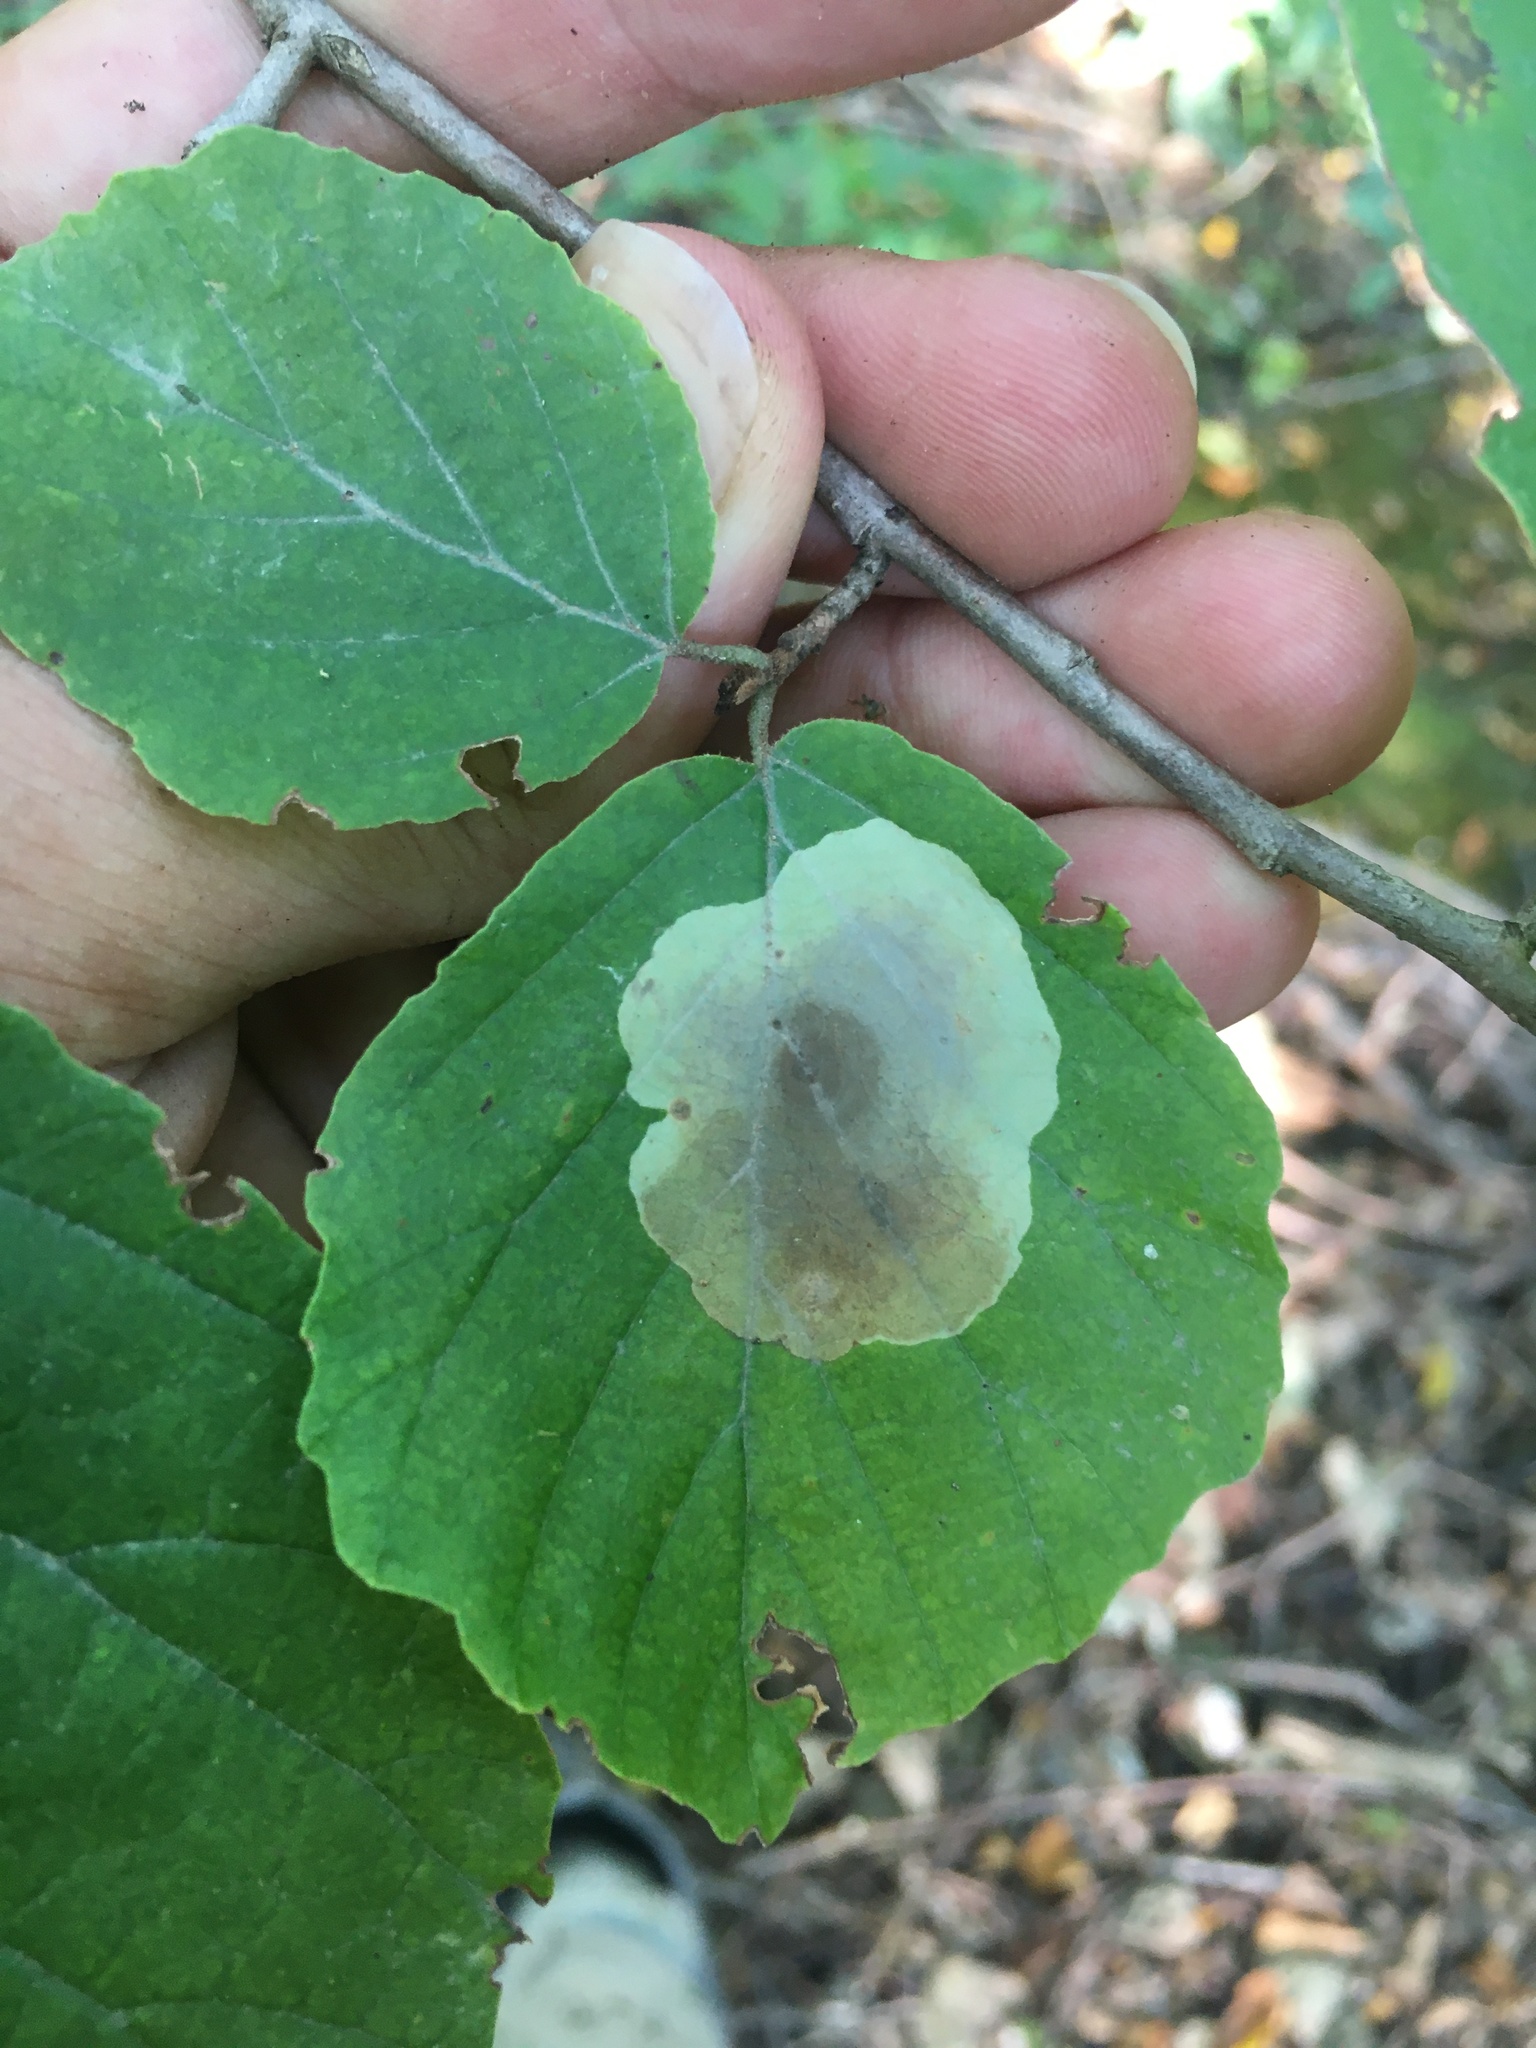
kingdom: Animalia
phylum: Arthropoda
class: Insecta
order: Lepidoptera
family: Gracillariidae
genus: Cameraria
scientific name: Cameraria hamameliella
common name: Witchhazel leafminer
